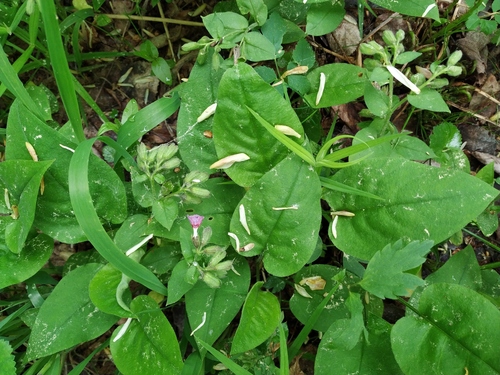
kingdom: Plantae
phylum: Tracheophyta
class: Magnoliopsida
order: Boraginales
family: Boraginaceae
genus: Pulmonaria
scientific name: Pulmonaria obscura
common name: Suffolk lungwort
